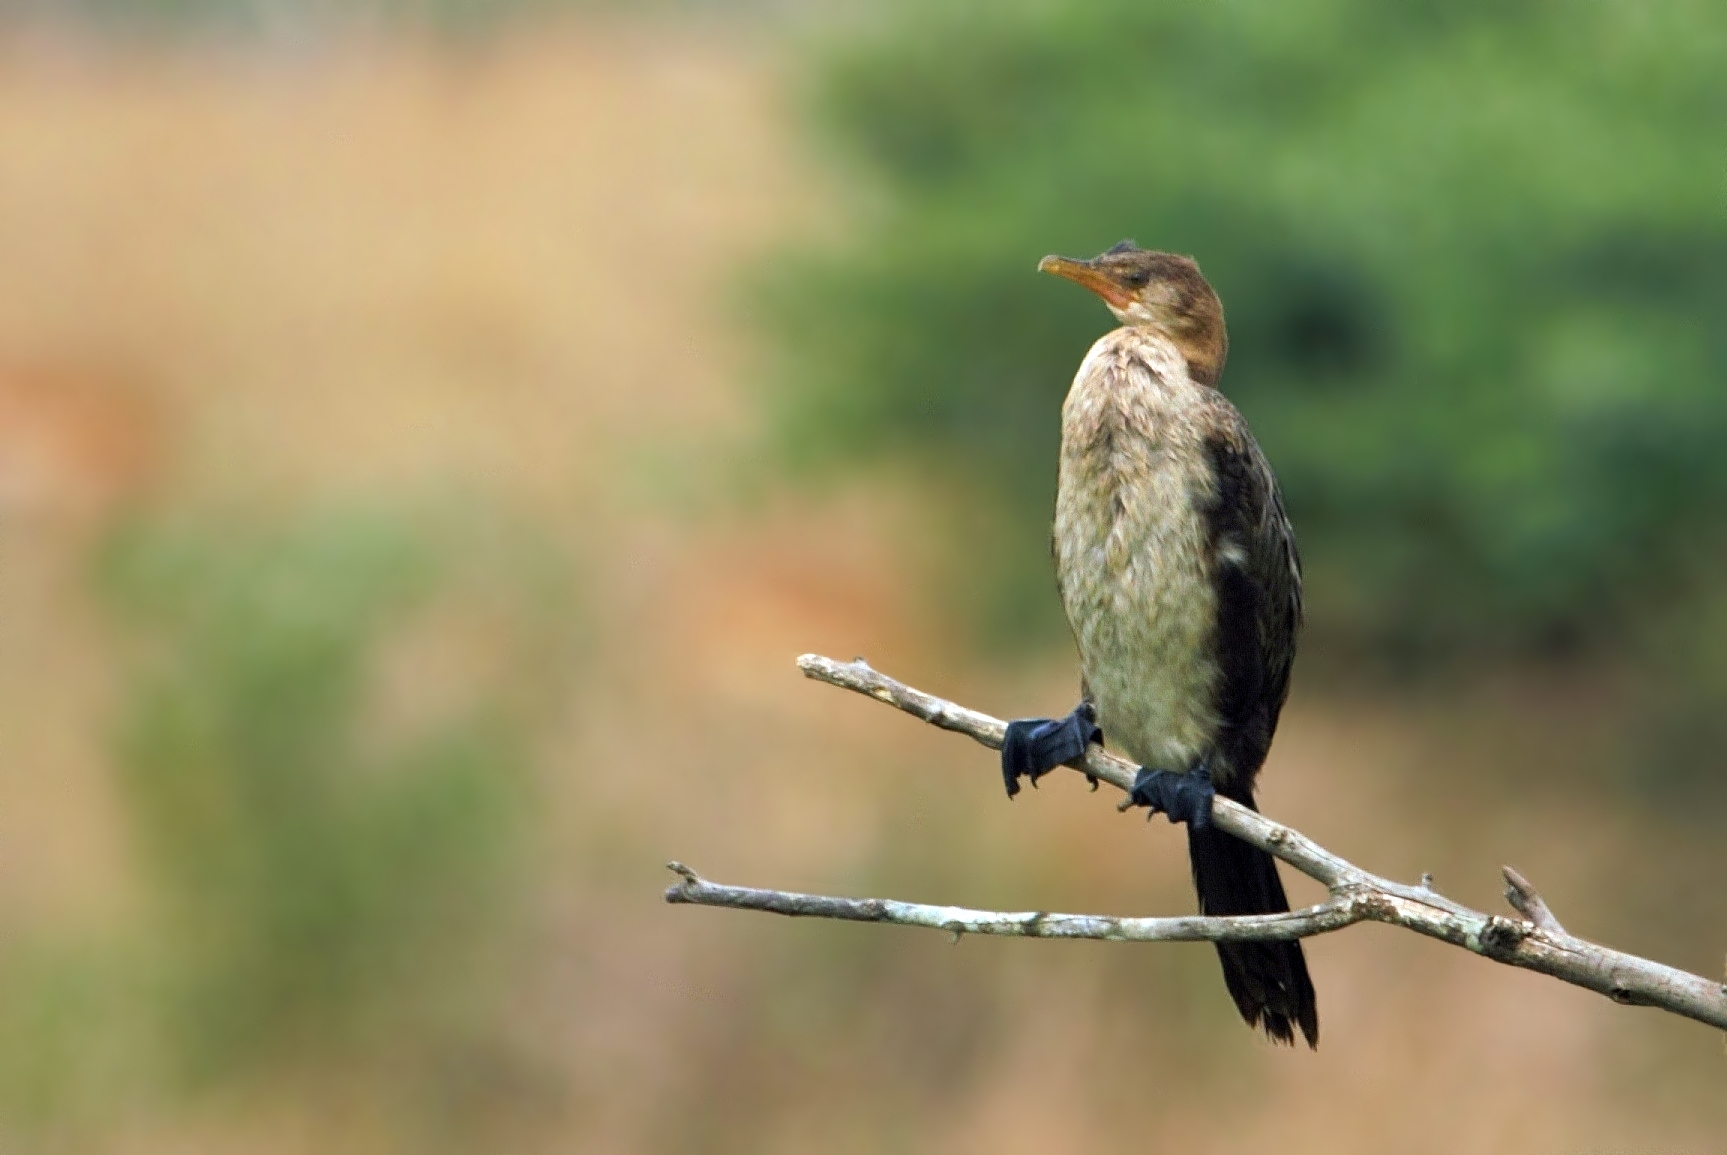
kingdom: Animalia
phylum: Chordata
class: Aves
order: Suliformes
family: Phalacrocoracidae
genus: Microcarbo
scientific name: Microcarbo africanus
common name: Long-tailed cormorant
